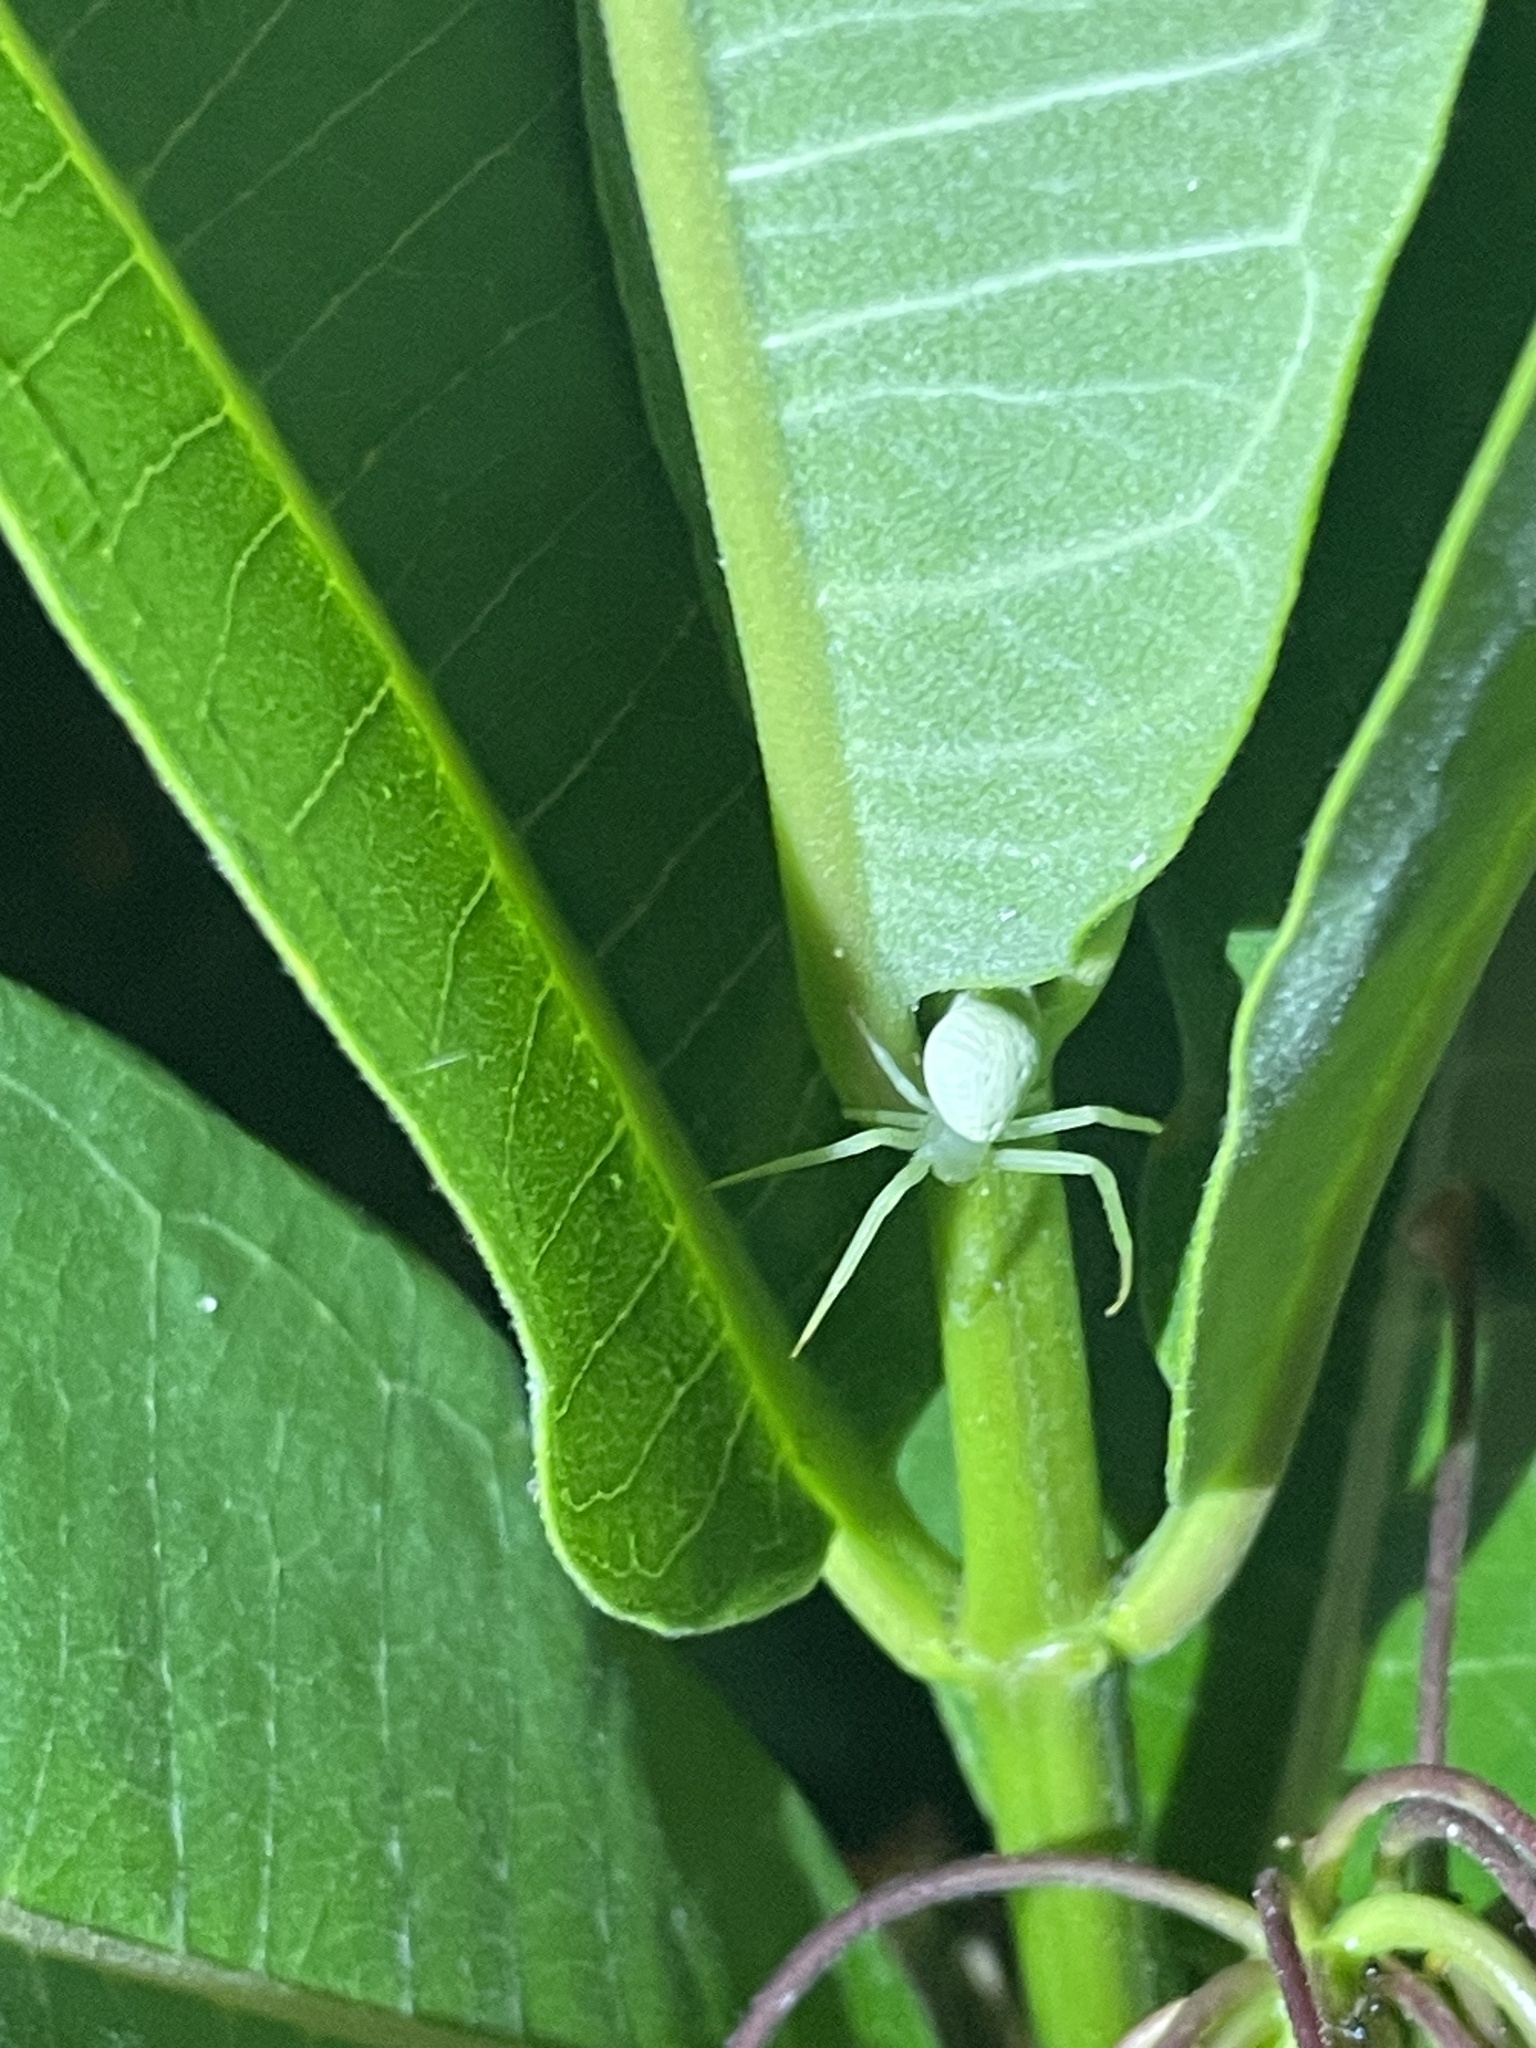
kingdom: Animalia
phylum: Arthropoda
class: Arachnida
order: Araneae
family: Thomisidae
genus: Misumessus
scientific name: Misumessus oblongus
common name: American green crab spider
